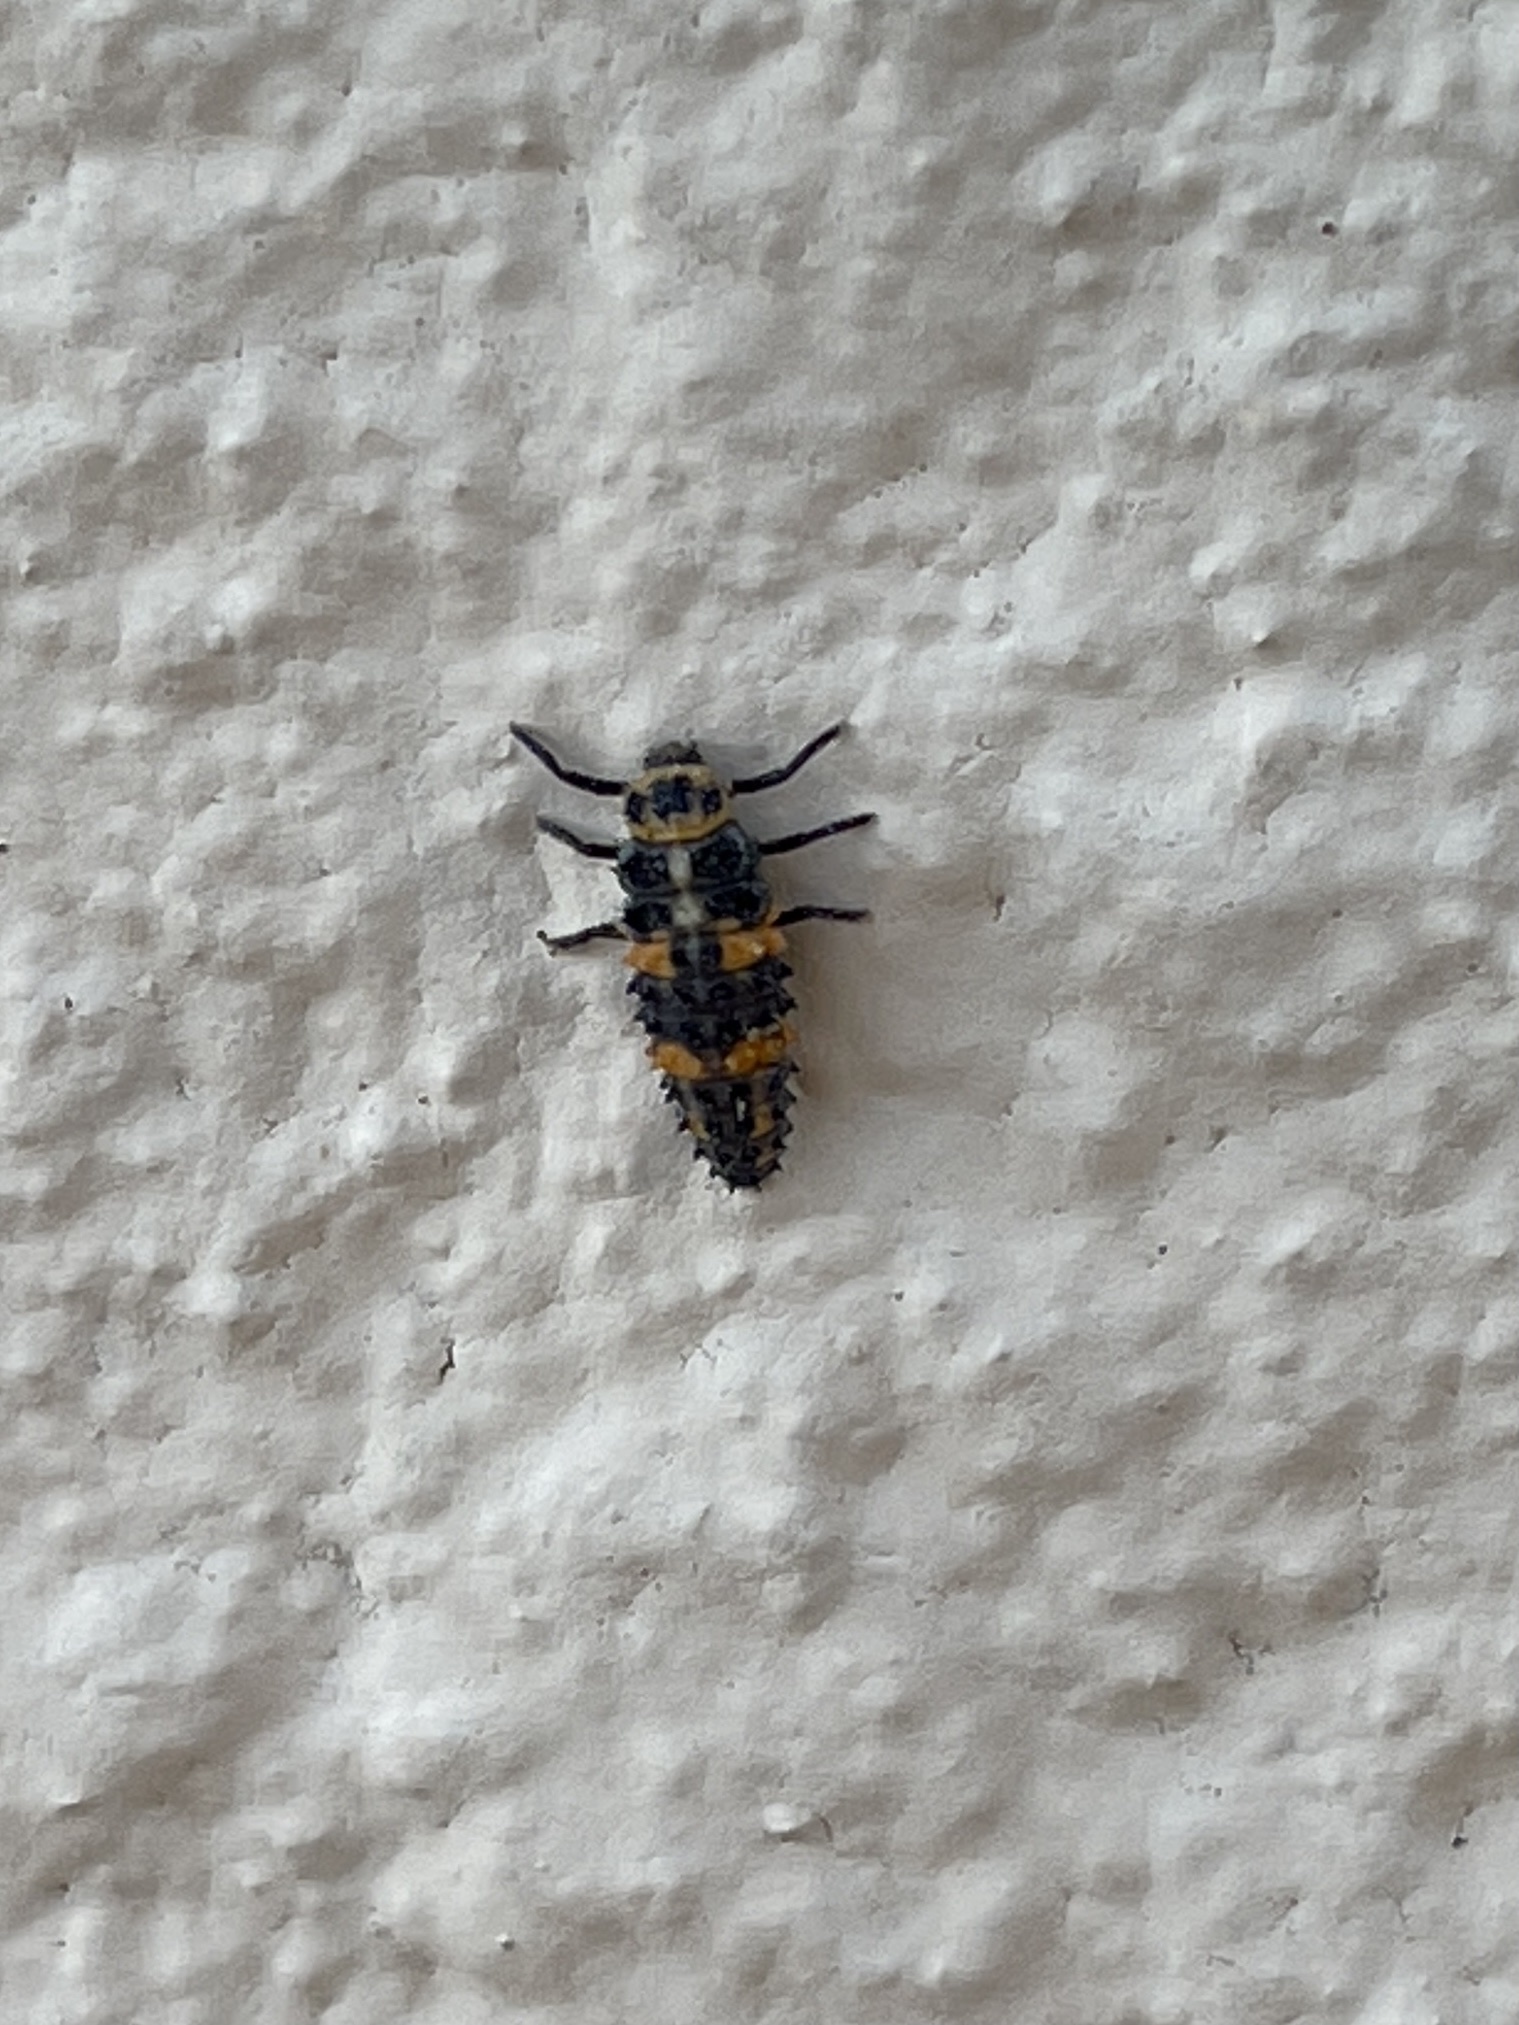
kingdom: Animalia
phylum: Arthropoda
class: Insecta
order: Coleoptera
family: Coccinellidae
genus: Hippodamia
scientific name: Hippodamia convergens
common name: Convergent lady beetle
